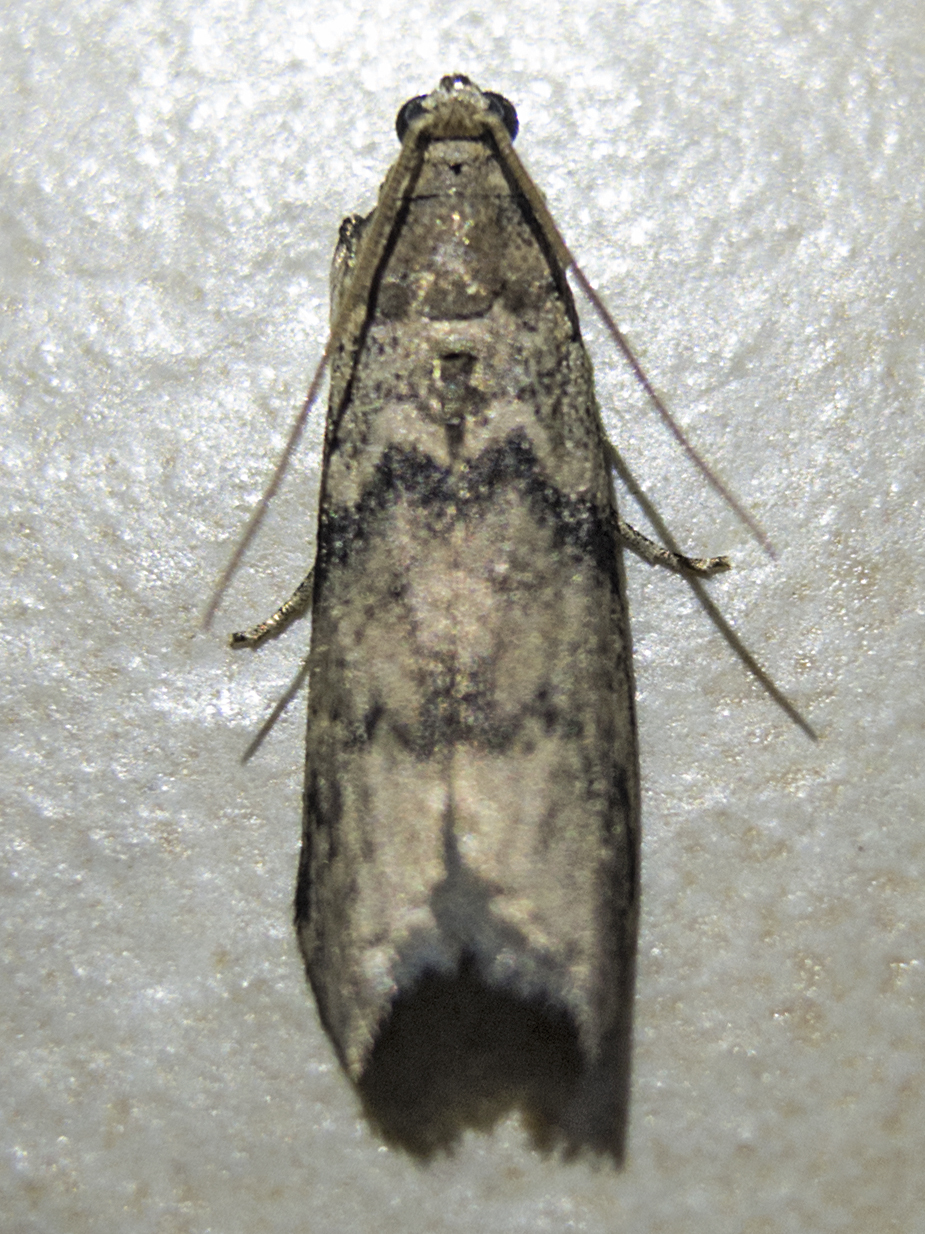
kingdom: Animalia
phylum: Arthropoda
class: Insecta
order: Lepidoptera
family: Pyralidae
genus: Euzophera
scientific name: Euzophera pinguis
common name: Ash-bark knot-horn
